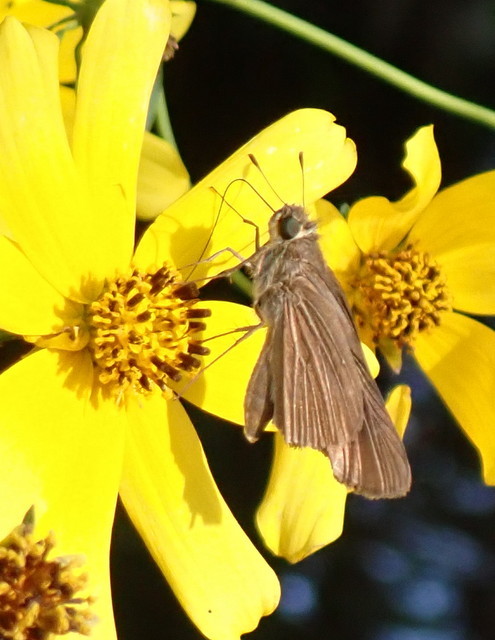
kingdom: Animalia
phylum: Arthropoda
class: Insecta
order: Lepidoptera
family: Hesperiidae
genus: Panoquina
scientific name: Panoquina ocola
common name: Ocola skipper
